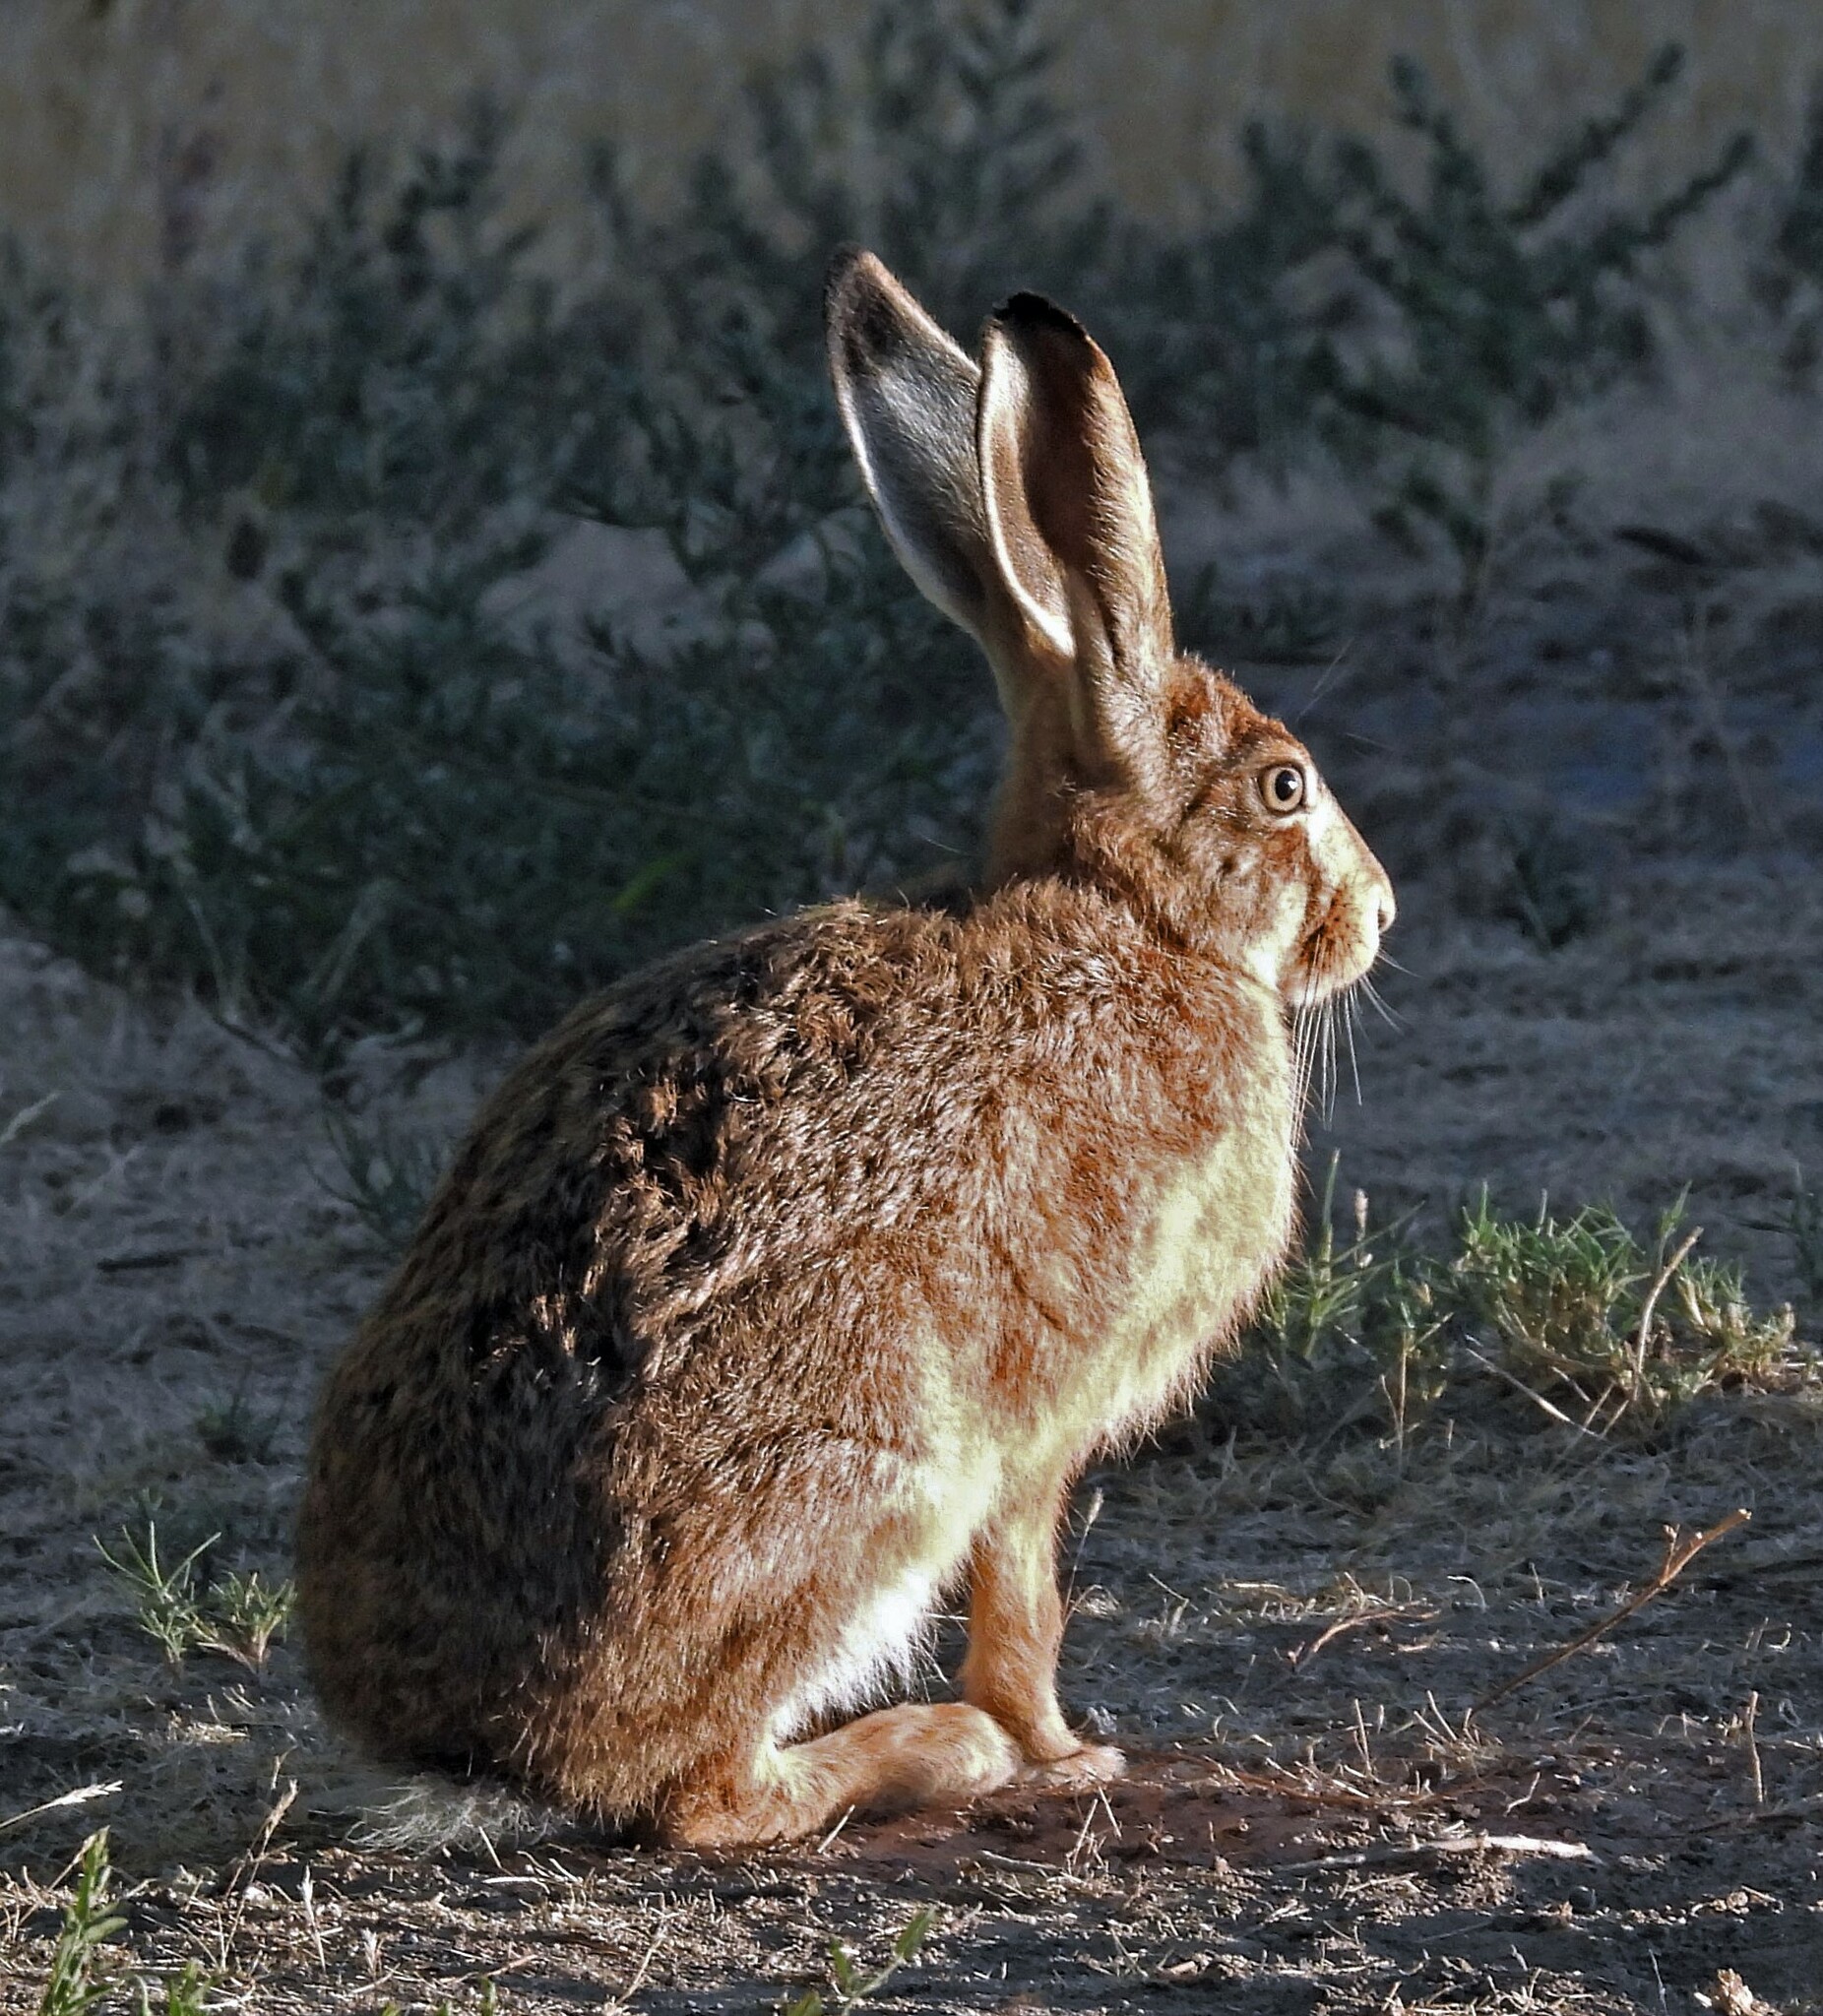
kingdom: Animalia
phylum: Chordata
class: Mammalia
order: Lagomorpha
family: Leporidae
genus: Lepus
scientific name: Lepus europaeus
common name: European hare
